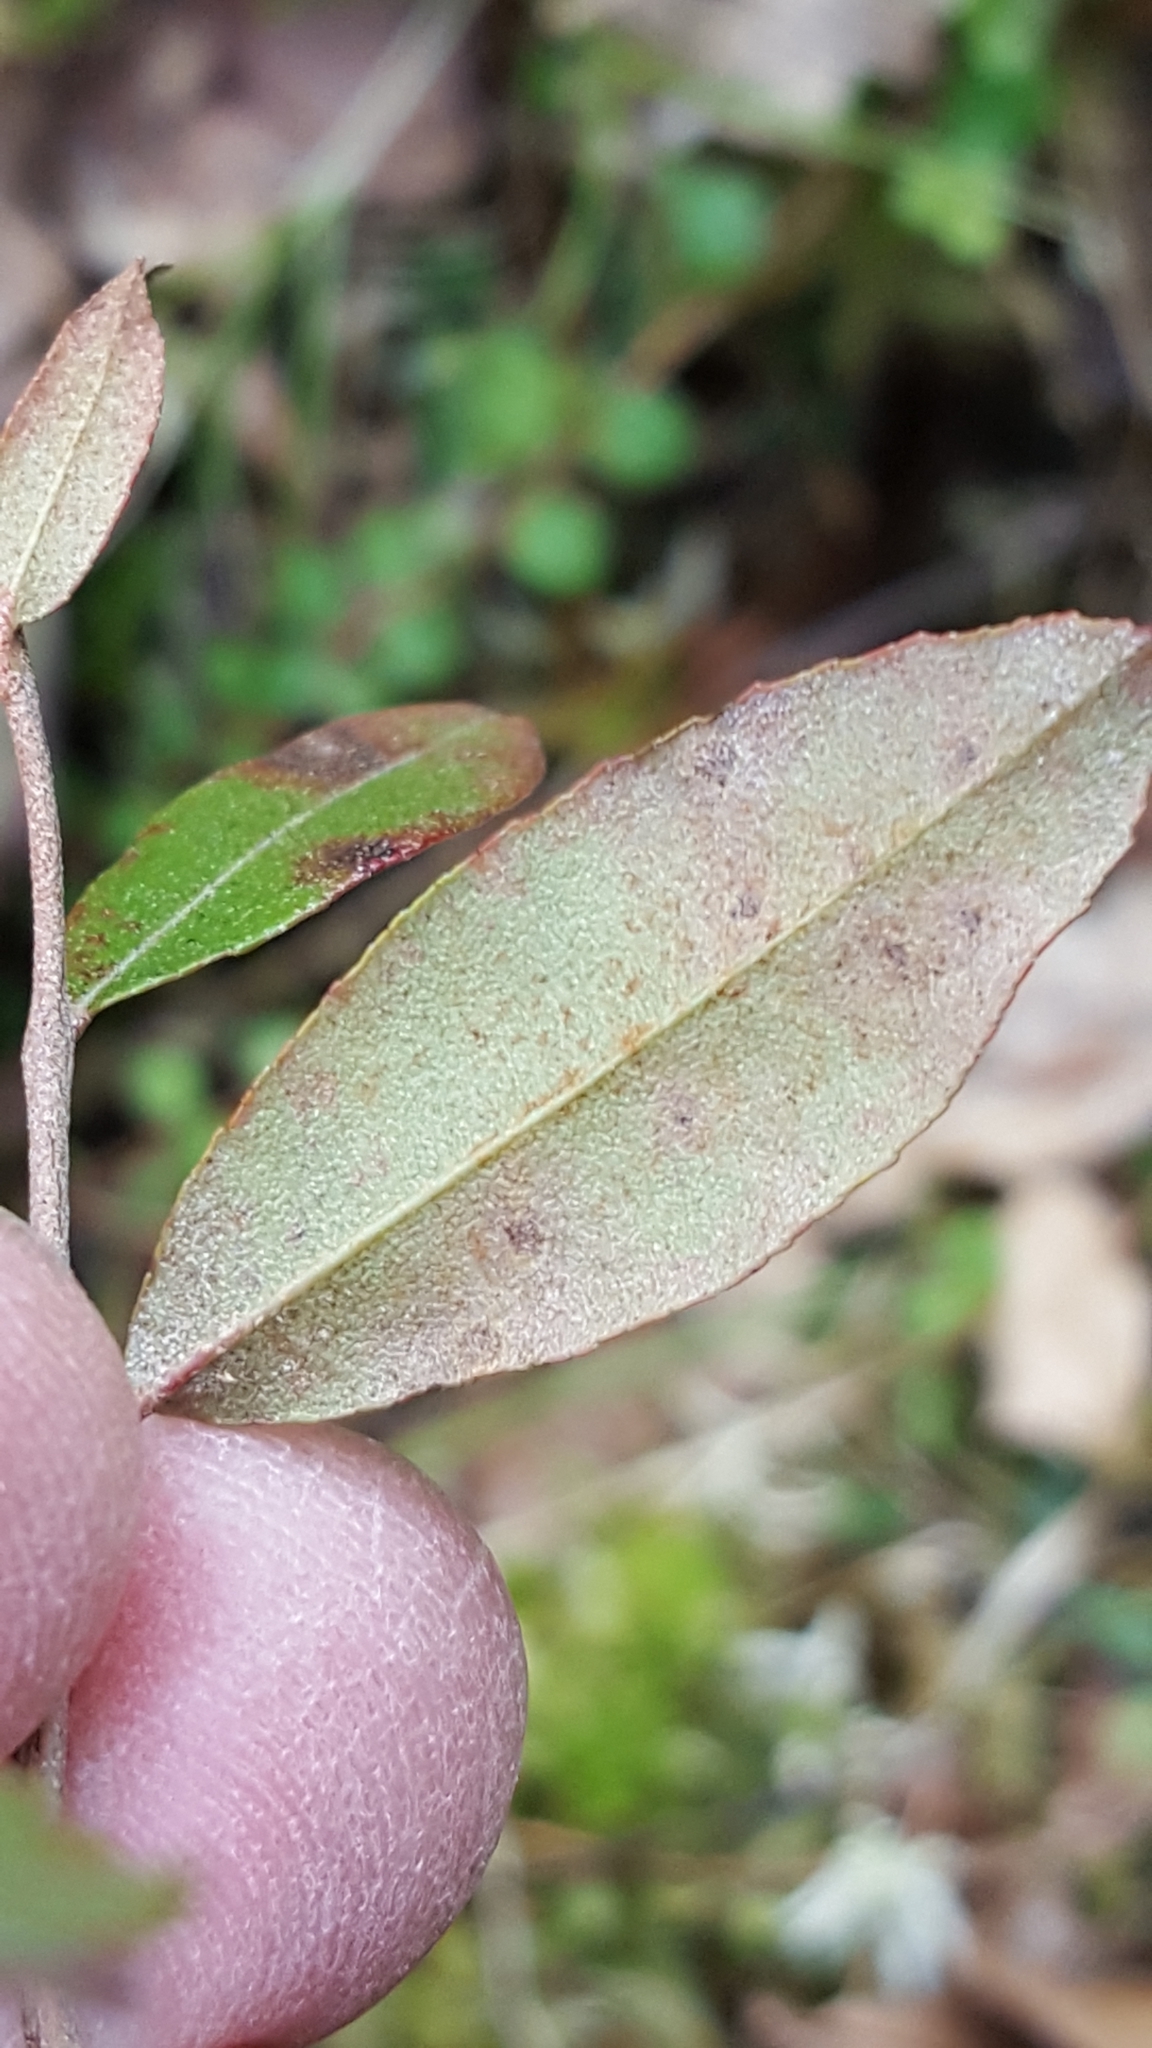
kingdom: Plantae
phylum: Tracheophyta
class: Magnoliopsida
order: Ericales
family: Ericaceae
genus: Vaccinium
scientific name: Vaccinium angustifolium
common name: Early lowbush blueberry
